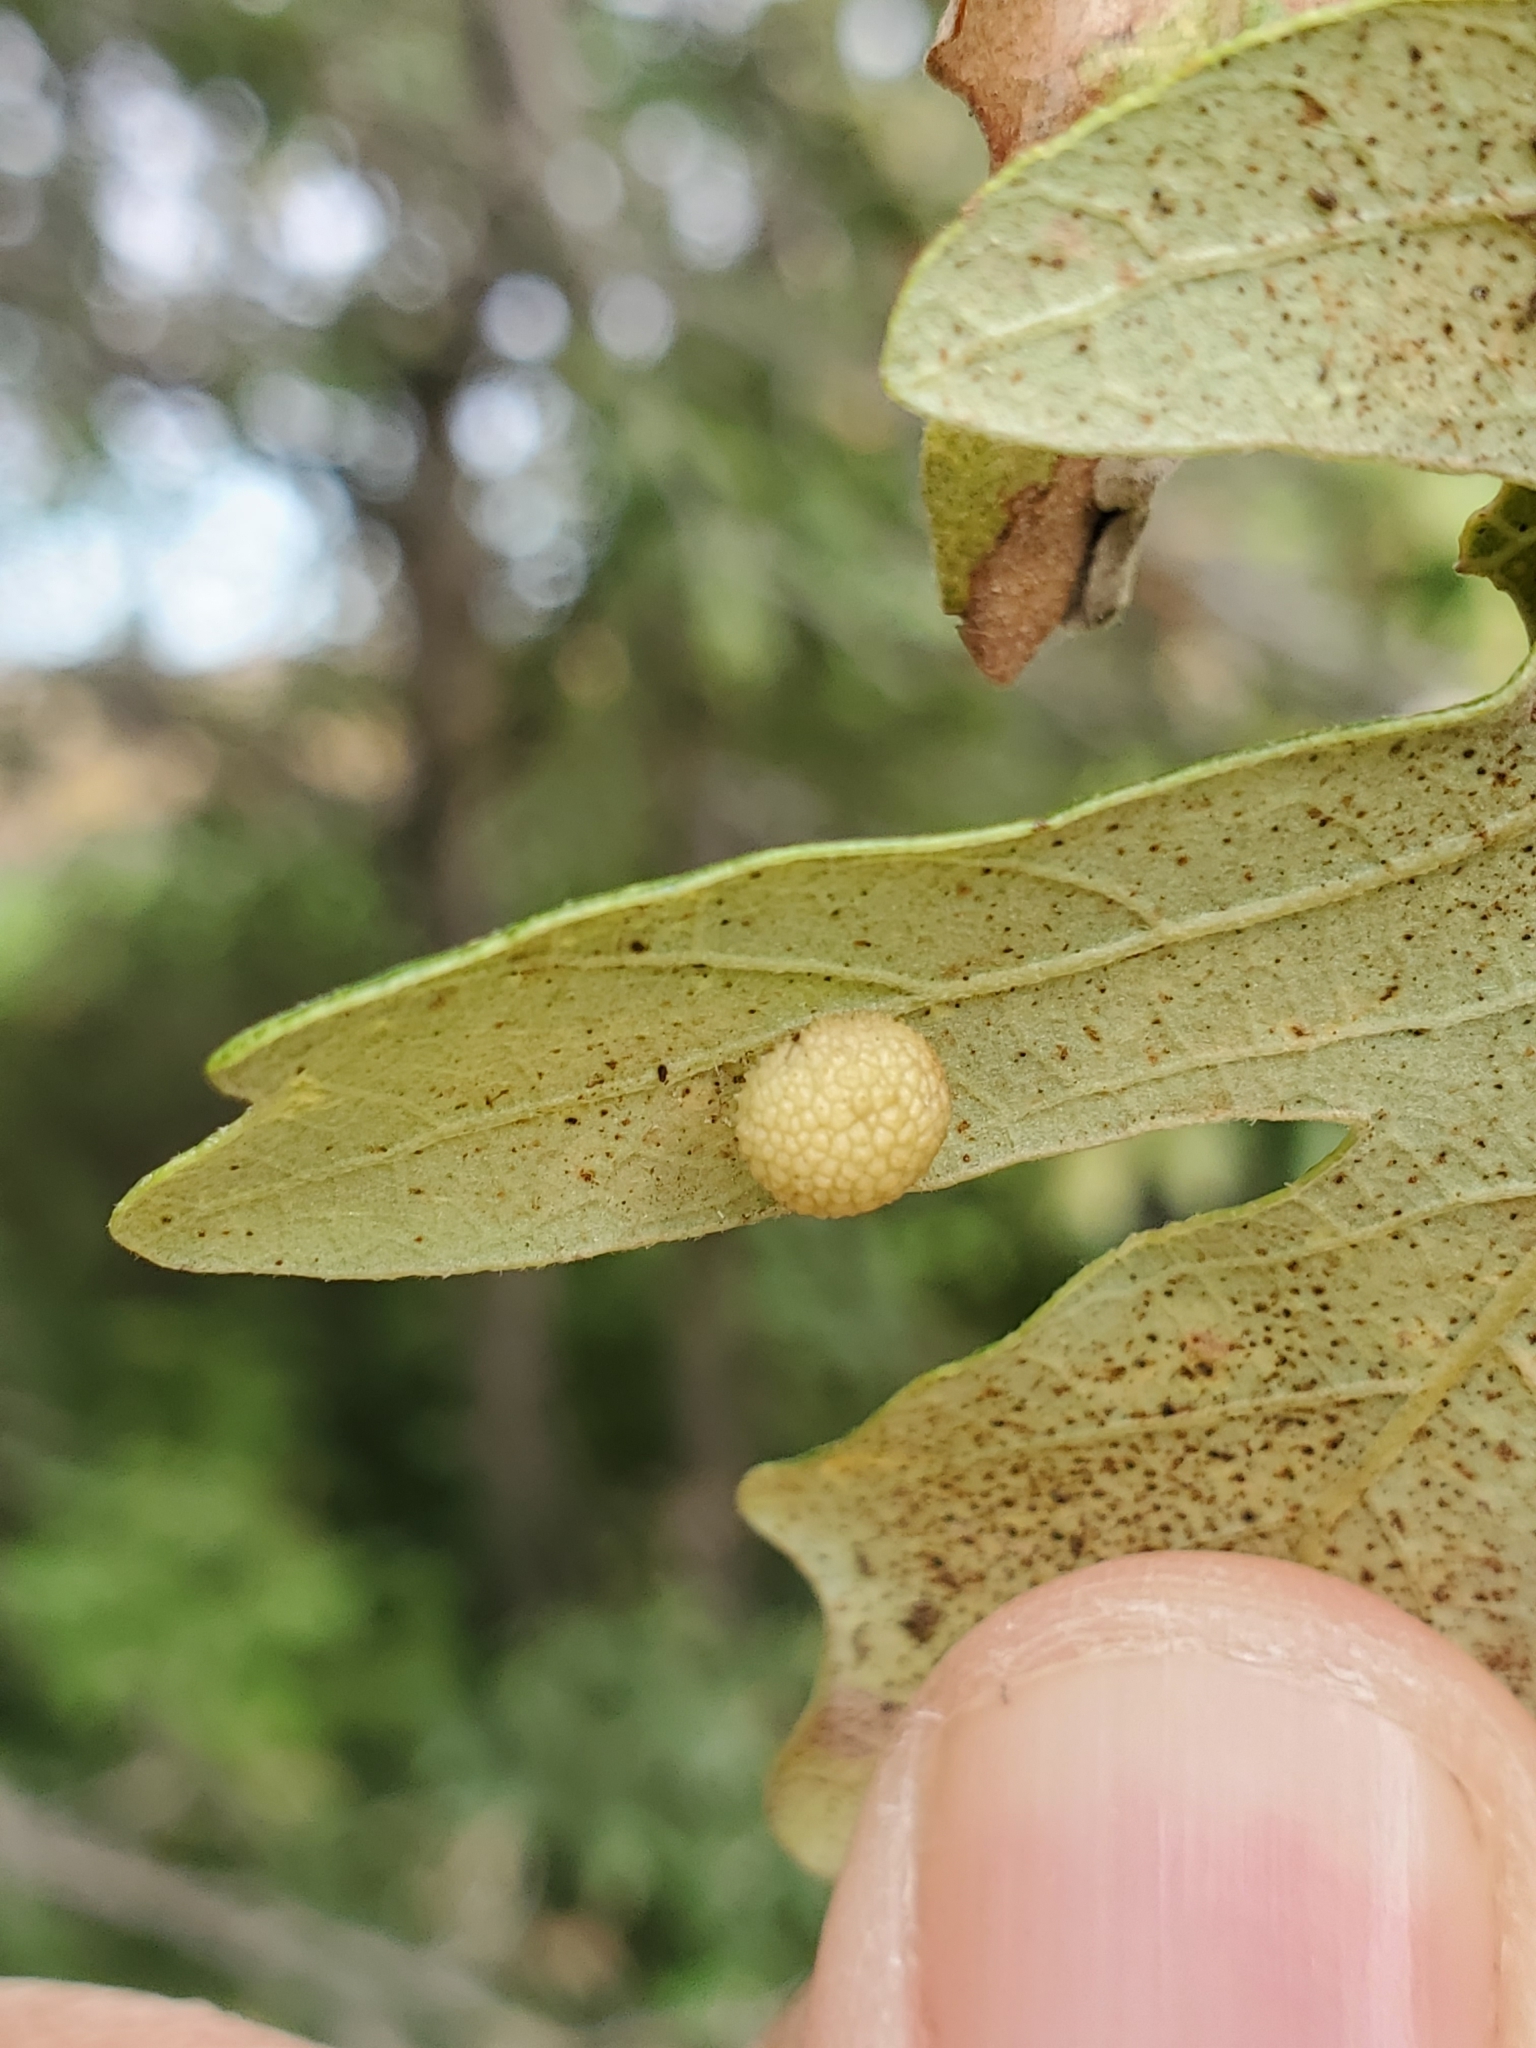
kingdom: Animalia
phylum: Arthropoda
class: Insecta
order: Hymenoptera
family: Cynipidae
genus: Acraspis
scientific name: Acraspis quercushirta
